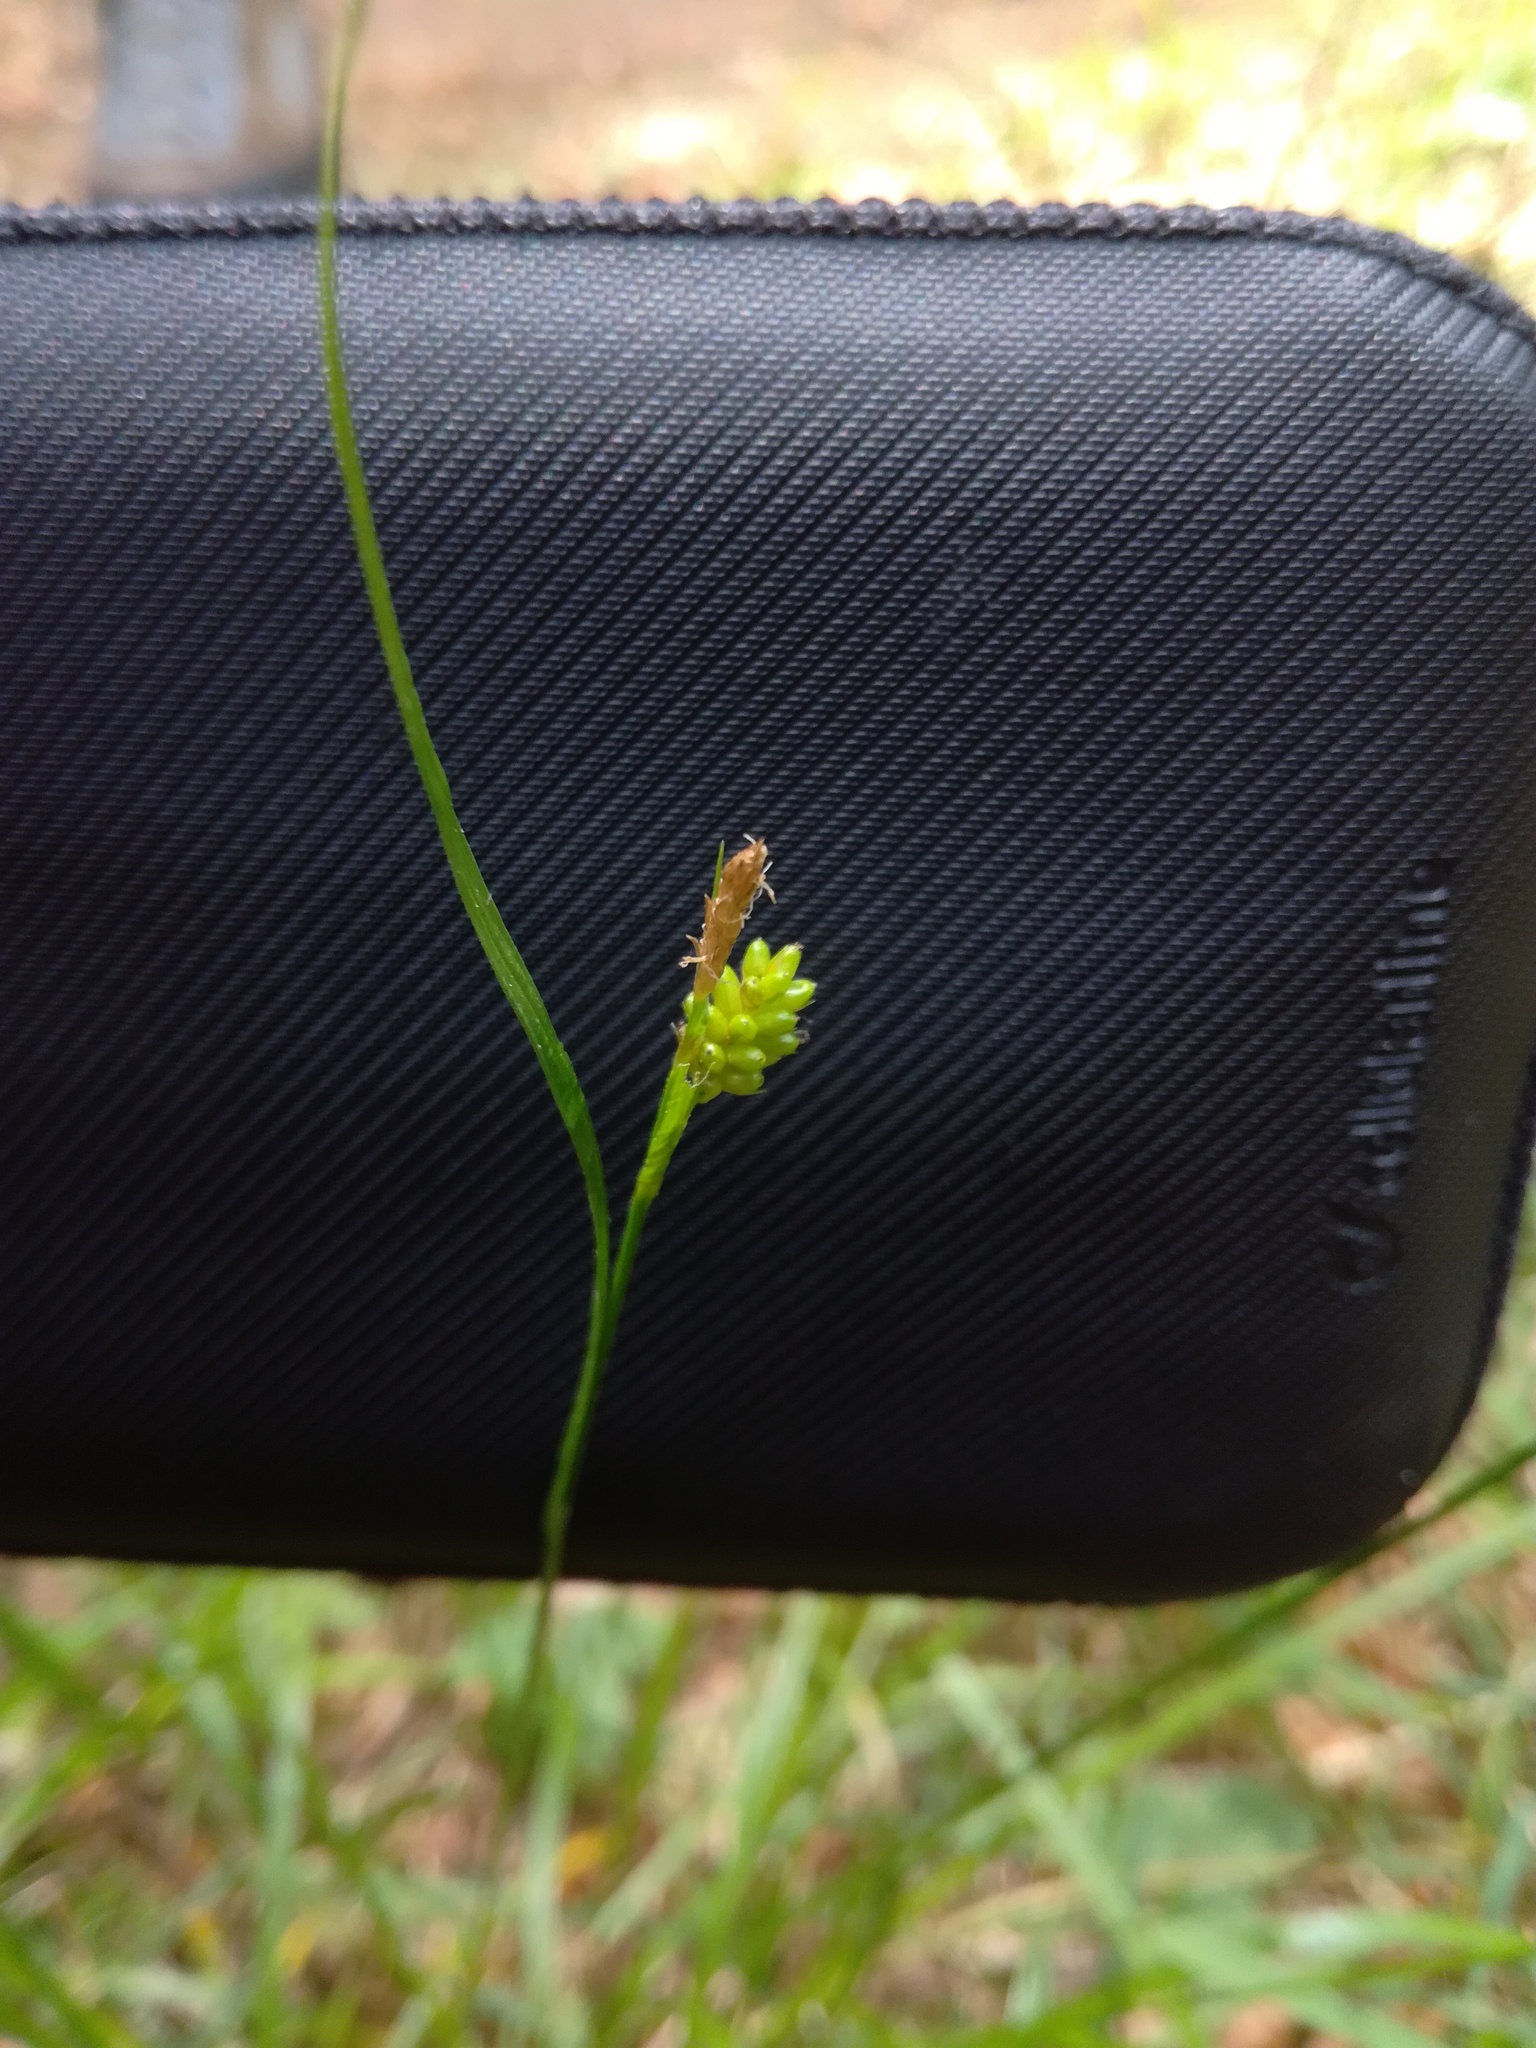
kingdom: Plantae
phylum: Tracheophyta
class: Liliopsida
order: Poales
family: Cyperaceae
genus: Carex
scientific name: Carex pallescens
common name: Pale sedge
